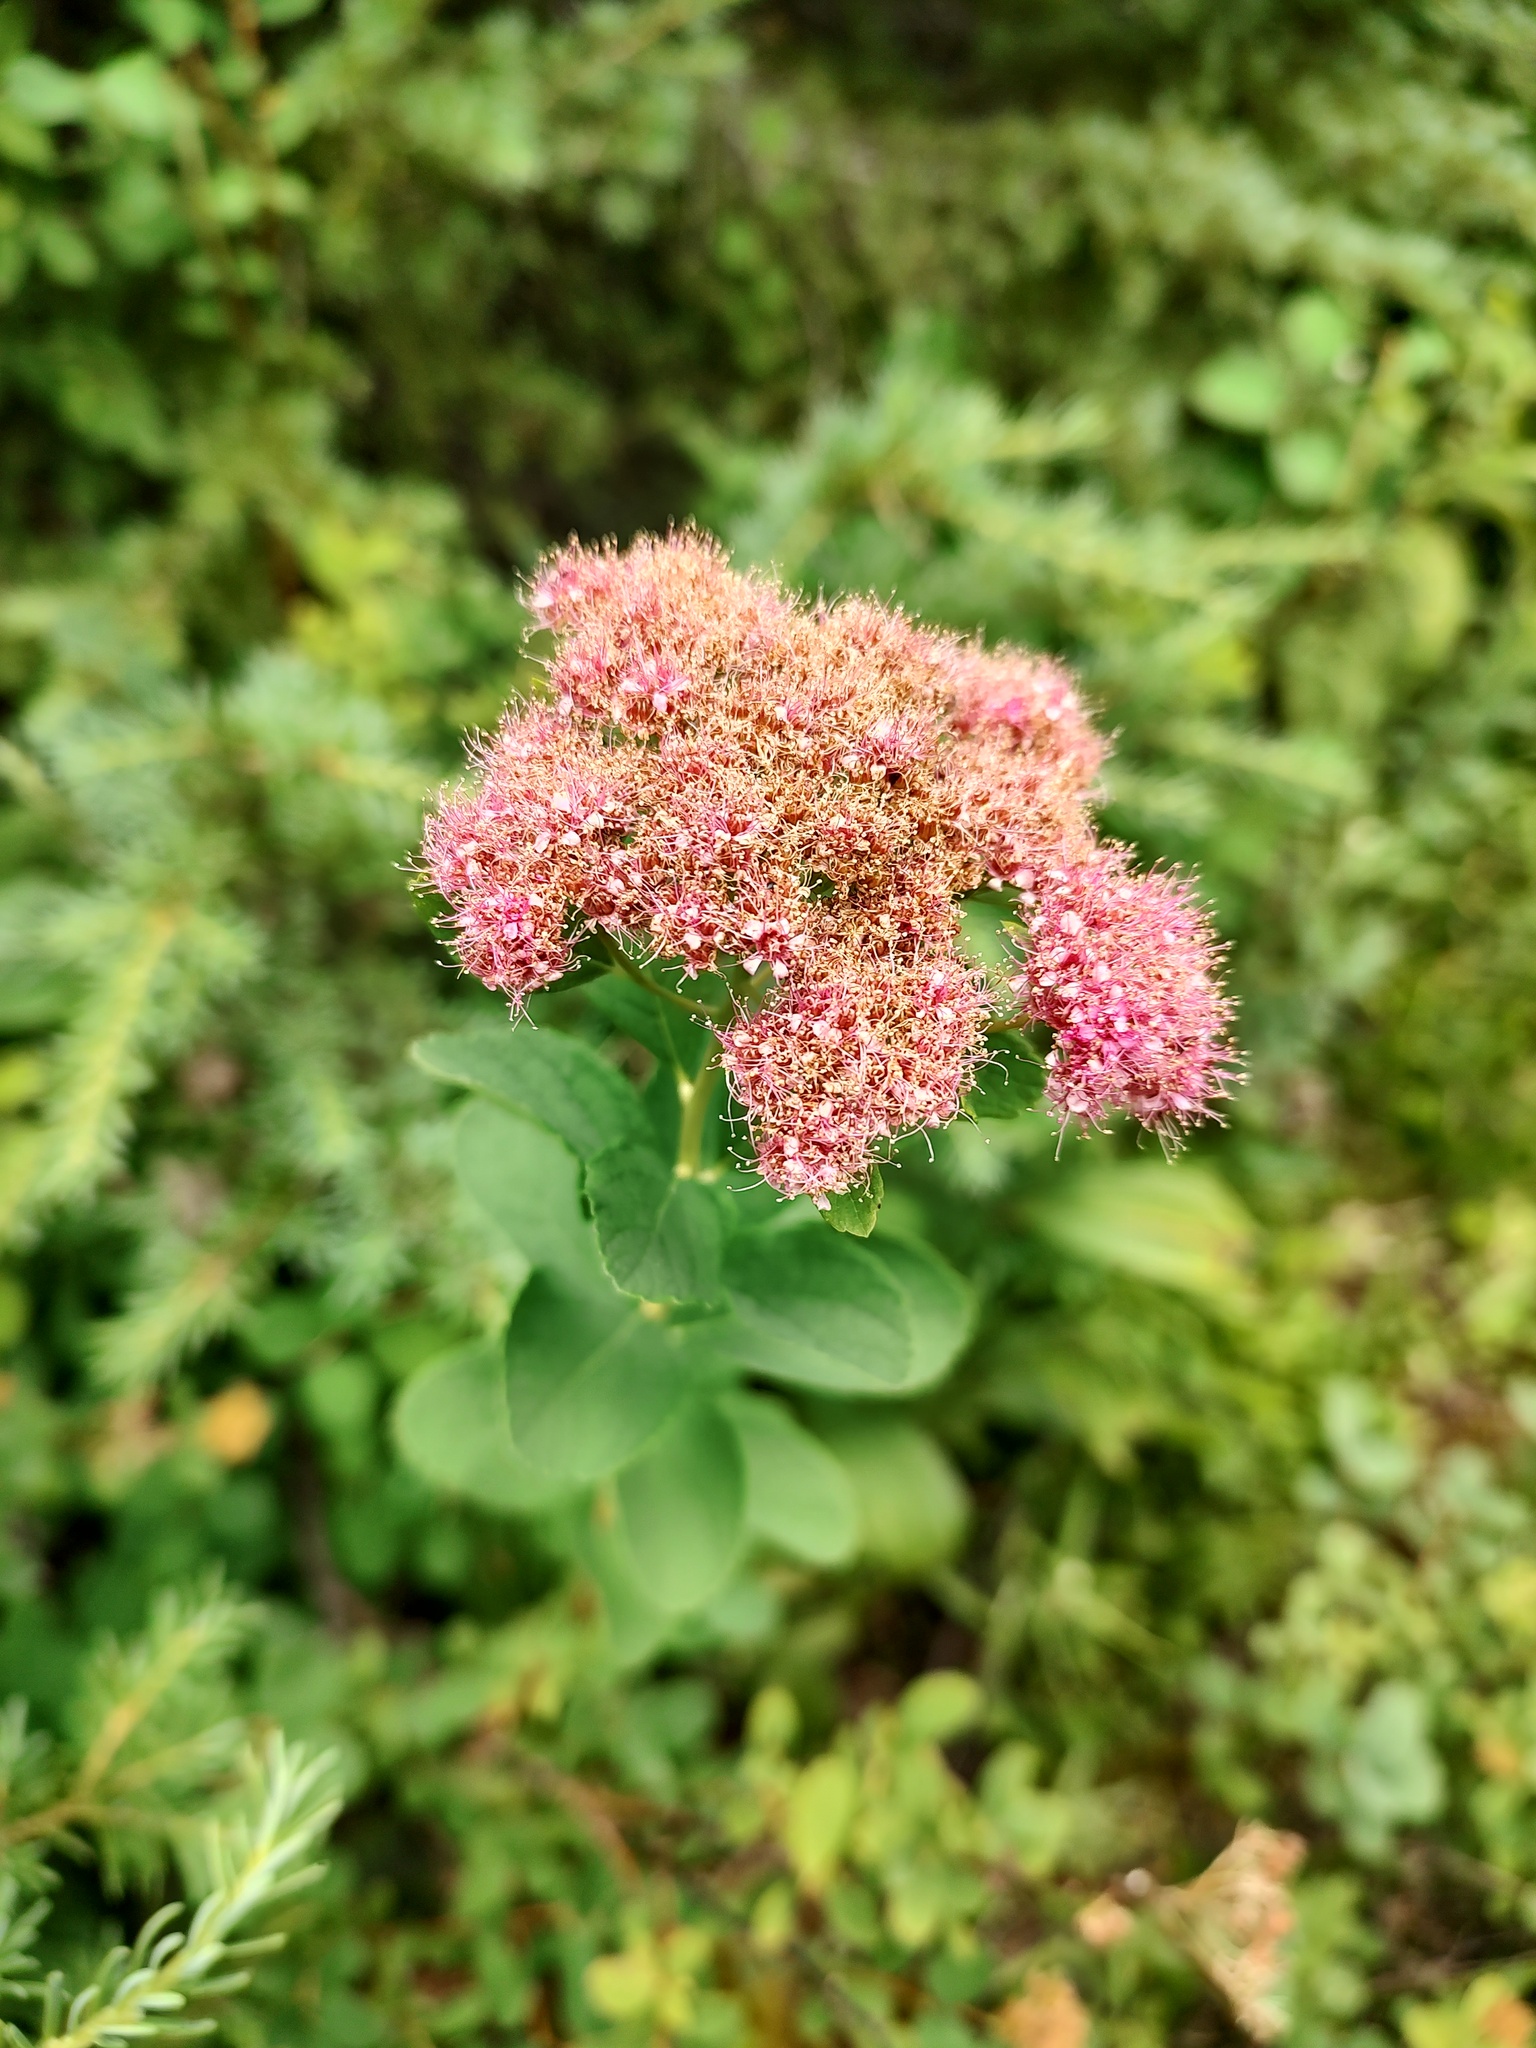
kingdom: Plantae
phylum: Tracheophyta
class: Magnoliopsida
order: Rosales
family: Rosaceae
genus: Spiraea
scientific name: Spiraea splendens
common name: Subalpine meadowsweet
